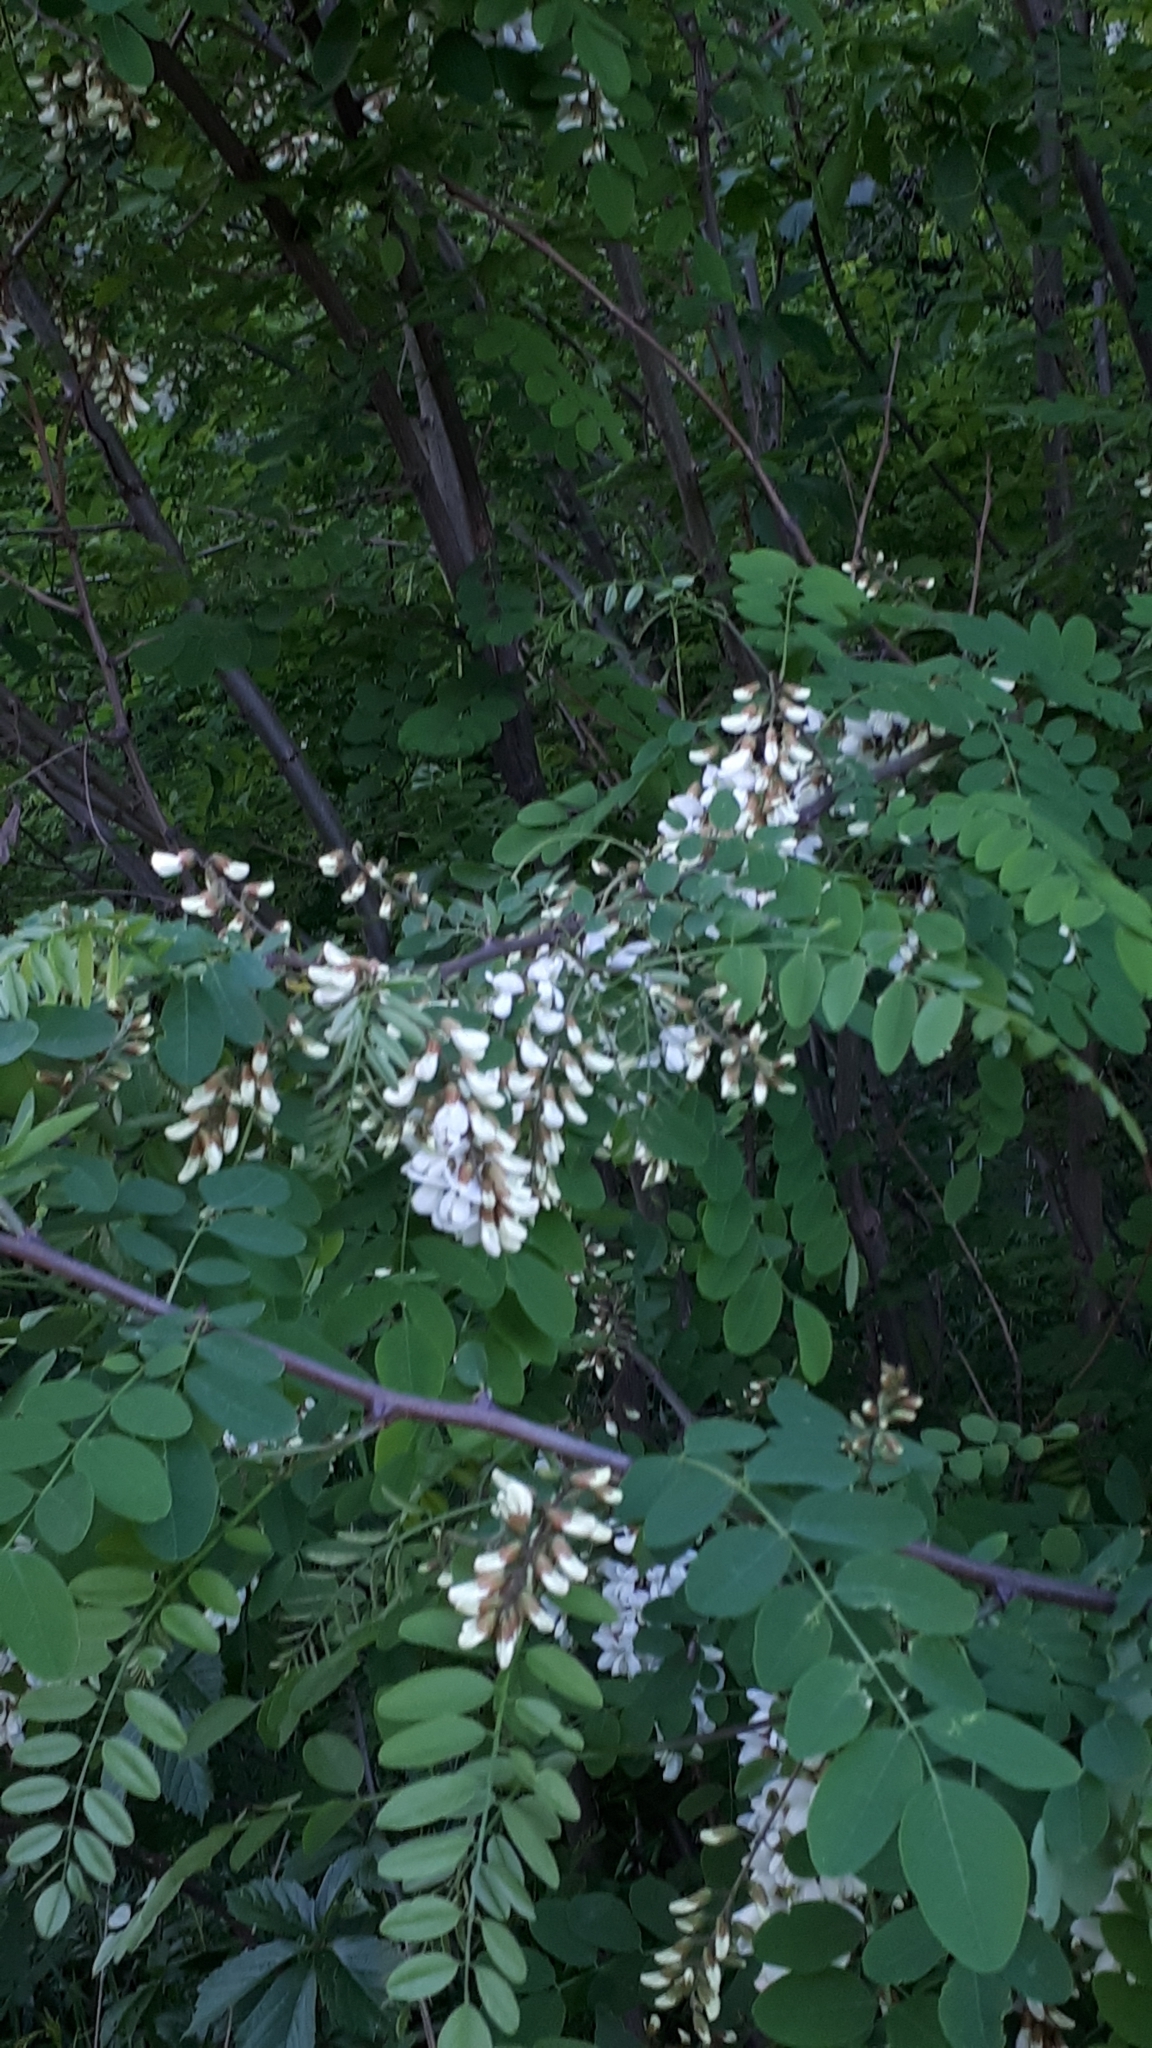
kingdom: Plantae
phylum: Tracheophyta
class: Magnoliopsida
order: Fabales
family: Fabaceae
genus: Robinia
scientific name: Robinia pseudoacacia
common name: Black locust
